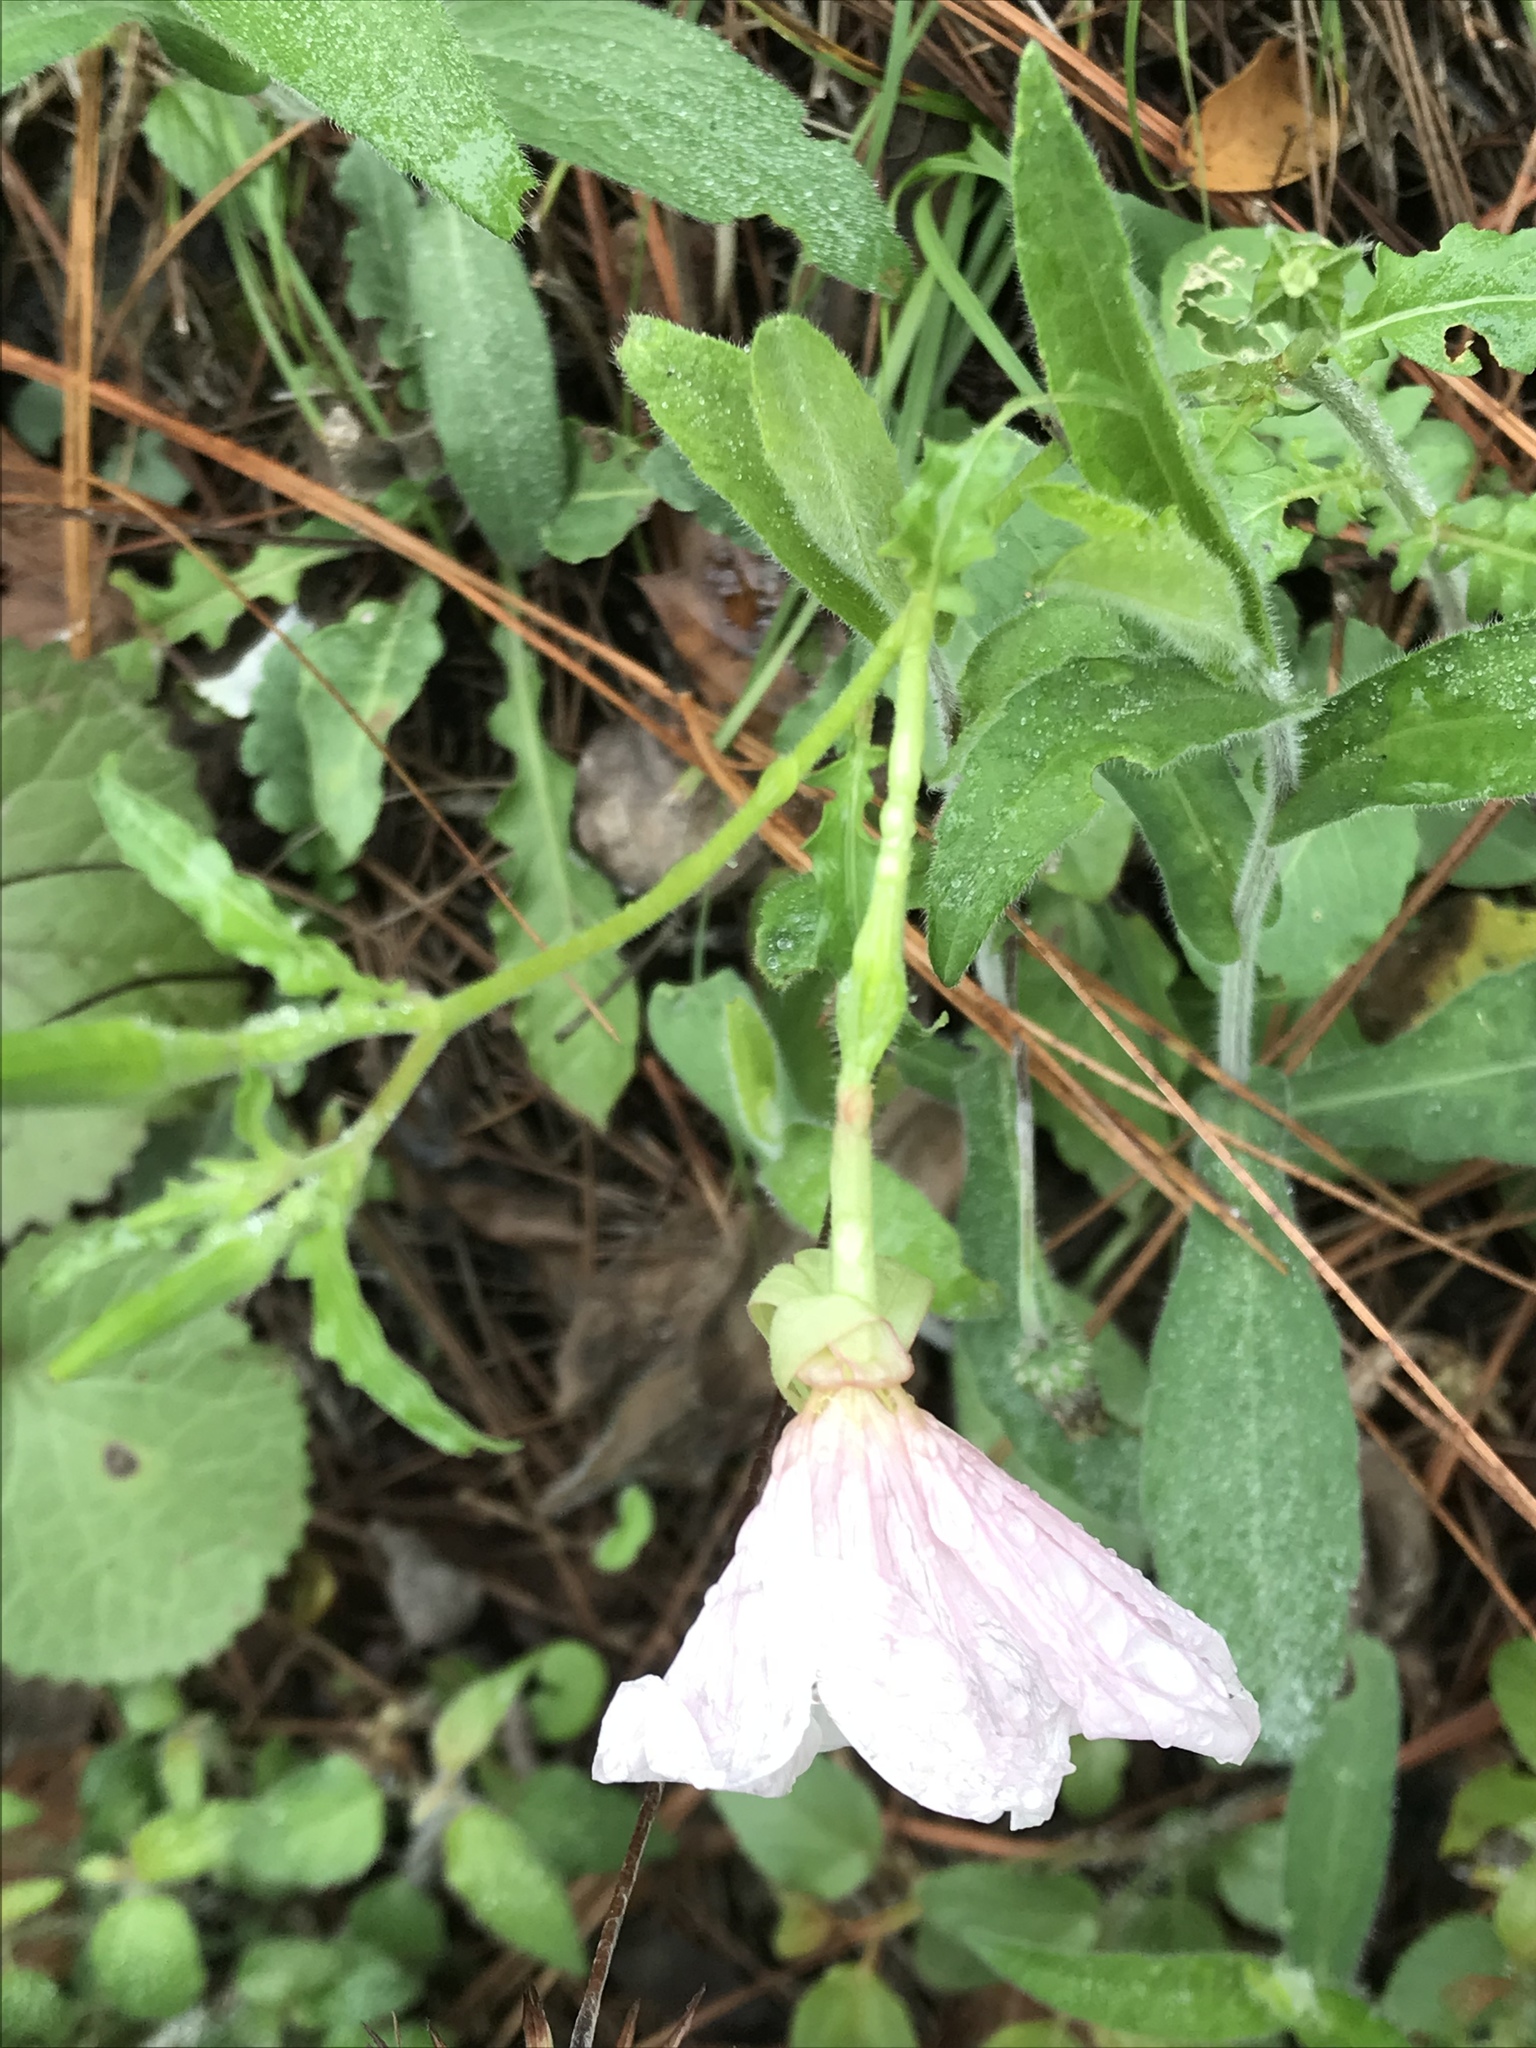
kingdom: Plantae
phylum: Tracheophyta
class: Magnoliopsida
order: Myrtales
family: Onagraceae
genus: Oenothera
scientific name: Oenothera speciosa
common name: White evening-primrose
